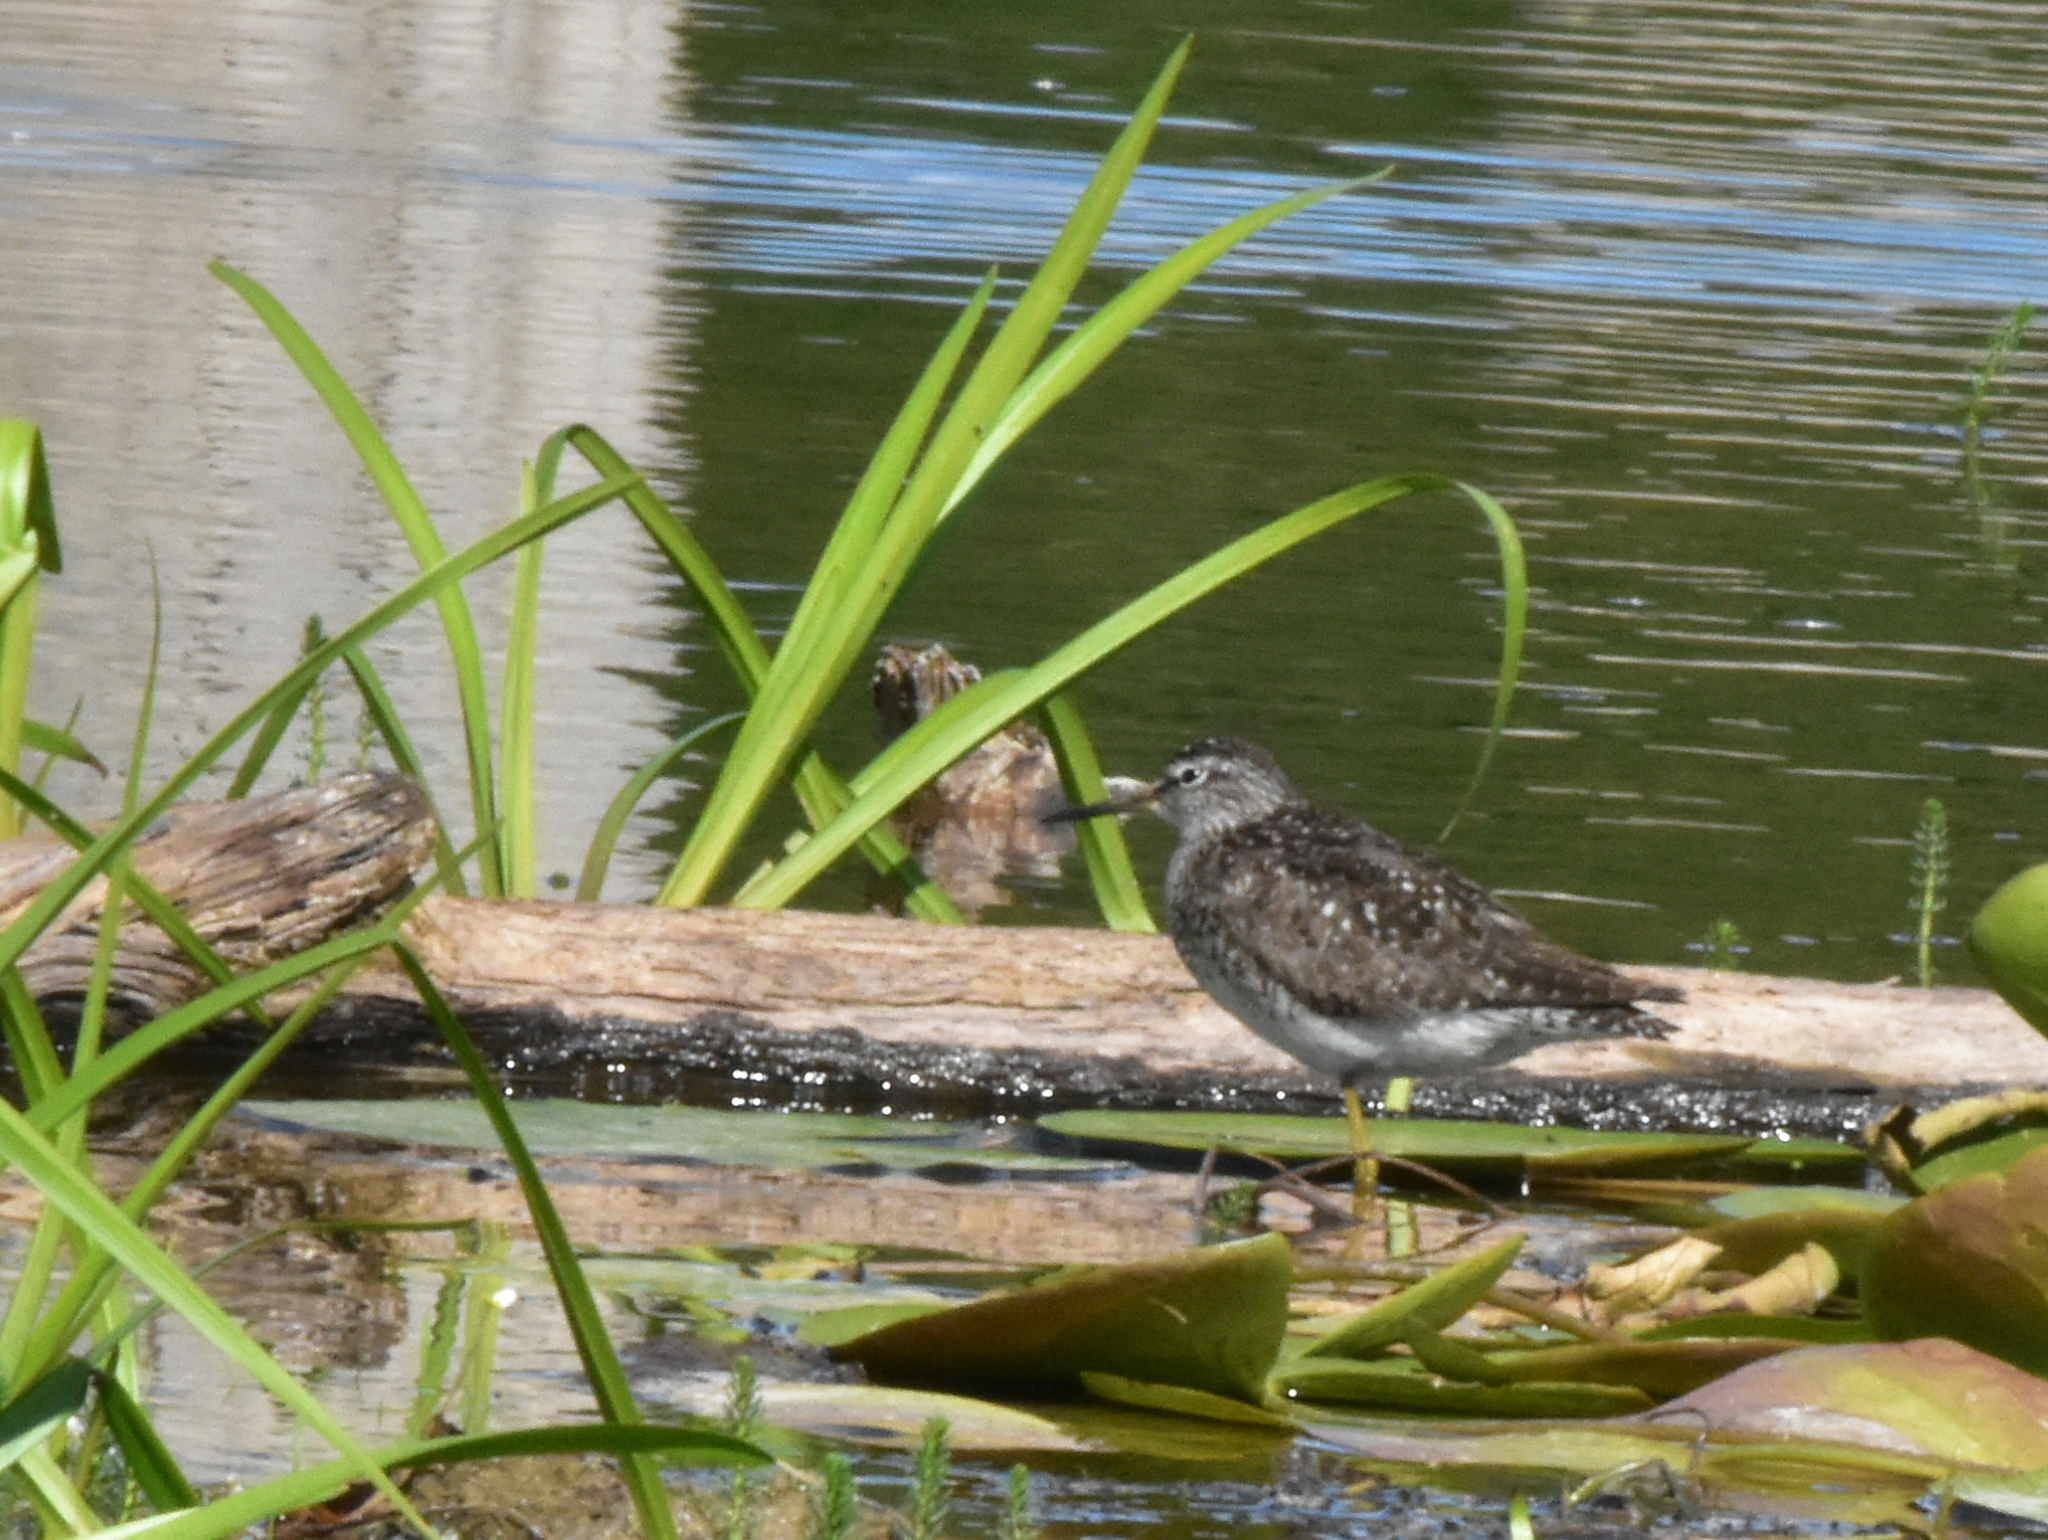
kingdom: Animalia
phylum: Chordata
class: Aves
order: Charadriiformes
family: Scolopacidae
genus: Tringa
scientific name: Tringa glareola
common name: Wood sandpiper
